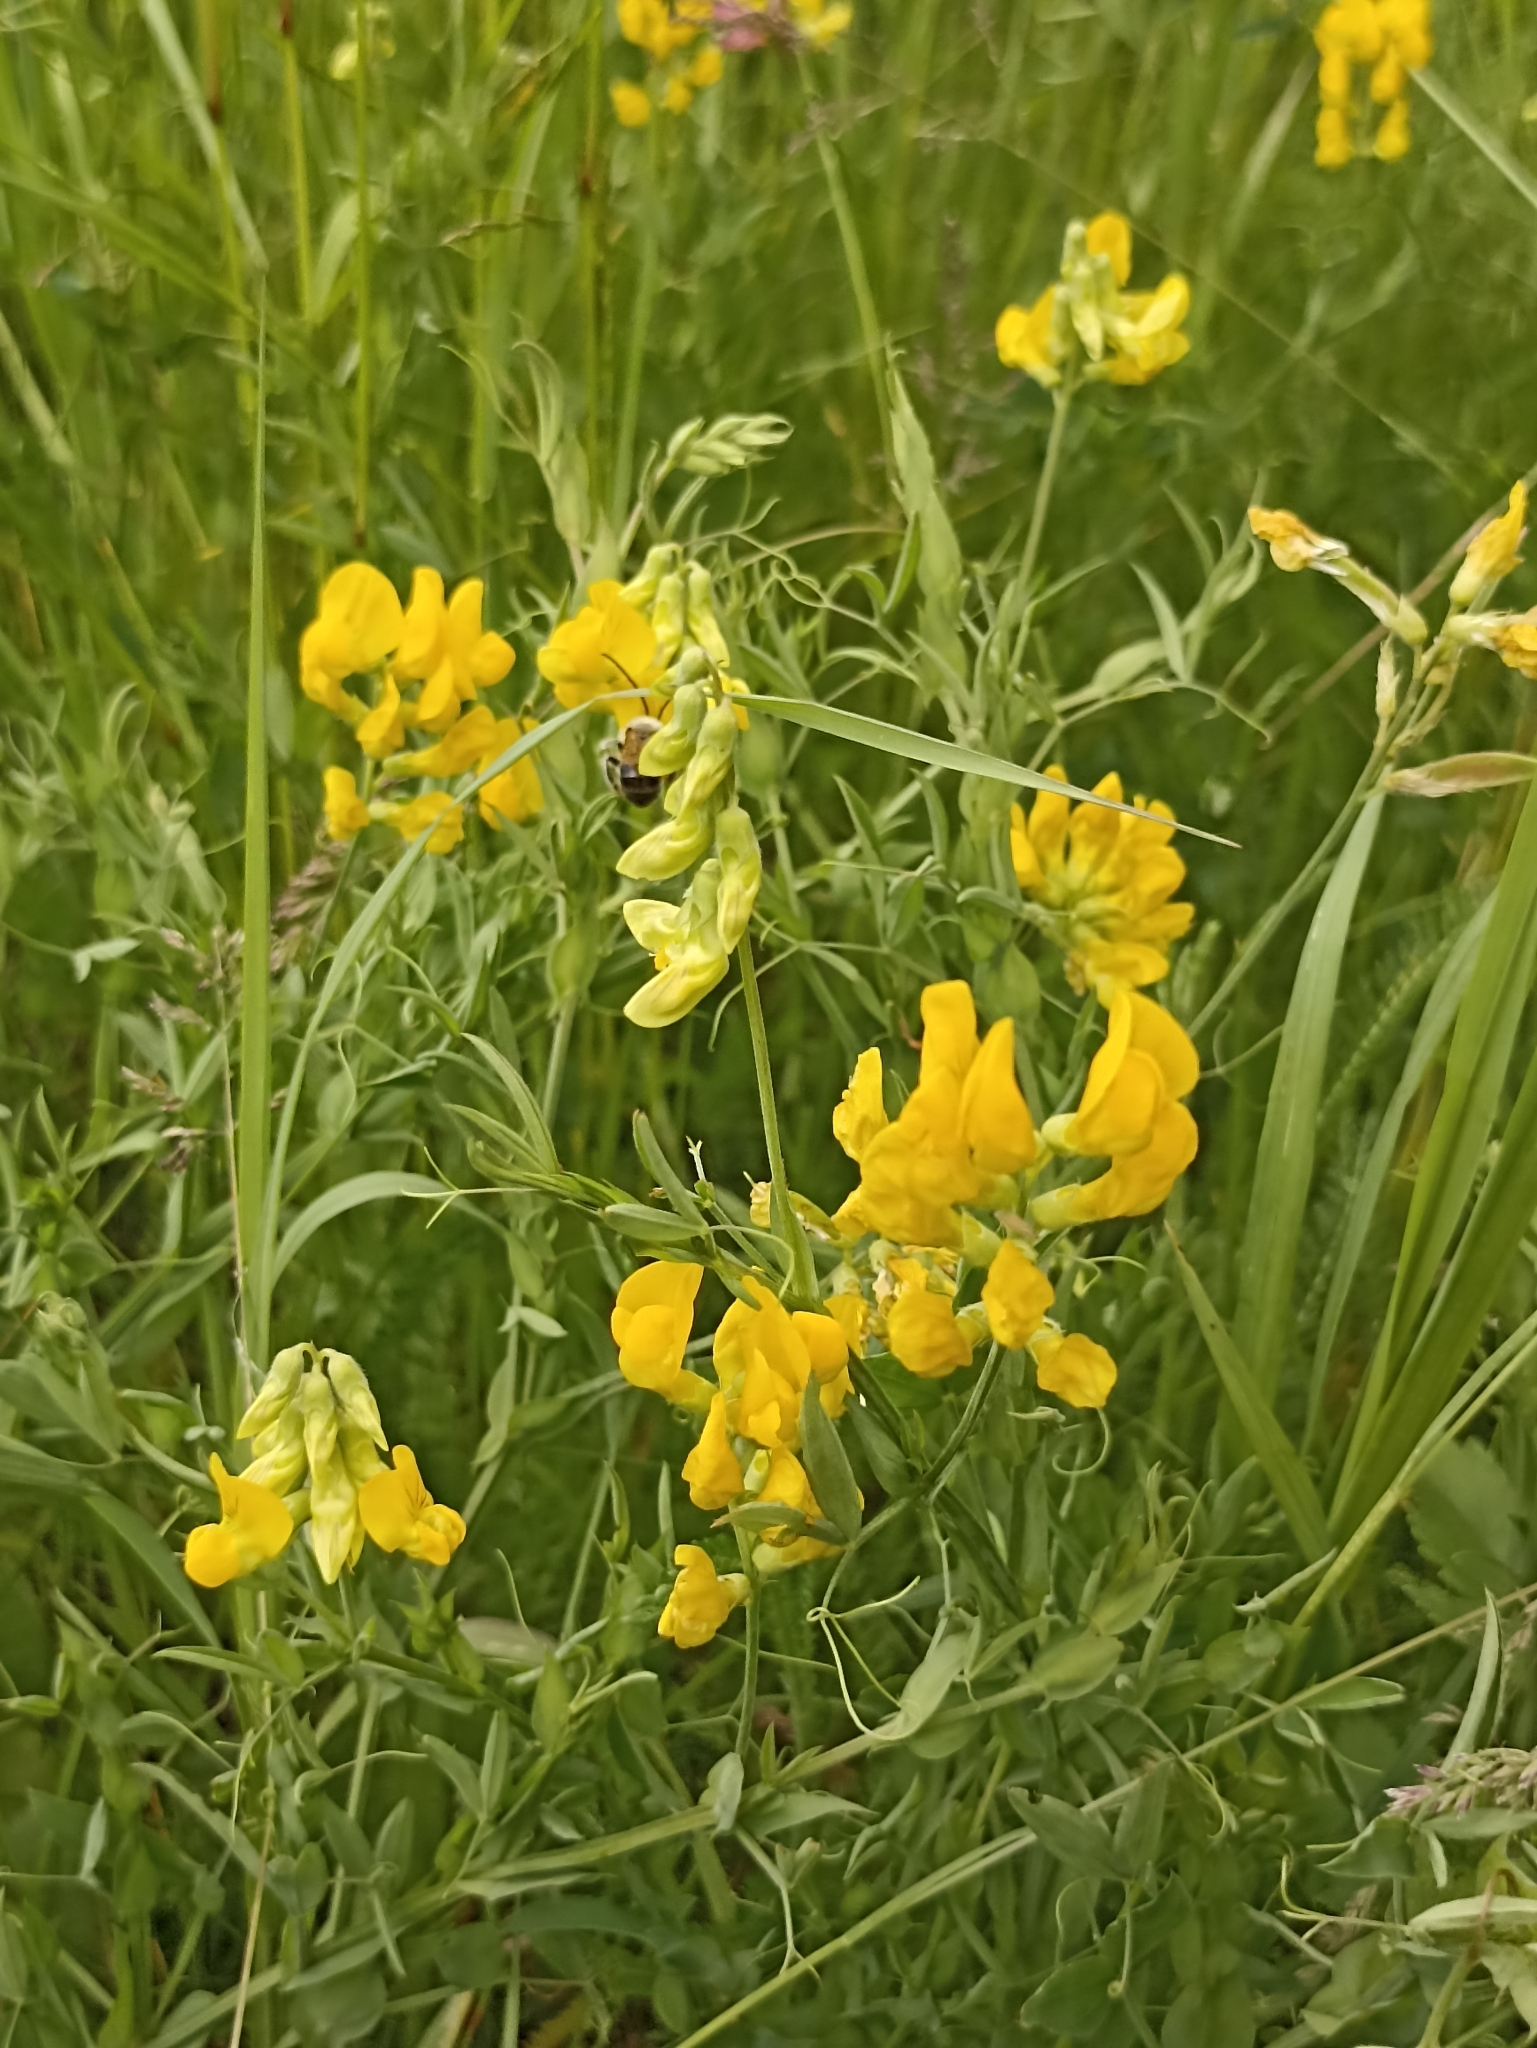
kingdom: Plantae
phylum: Tracheophyta
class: Magnoliopsida
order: Fabales
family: Fabaceae
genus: Lathyrus
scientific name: Lathyrus pratensis
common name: Meadow vetchling
